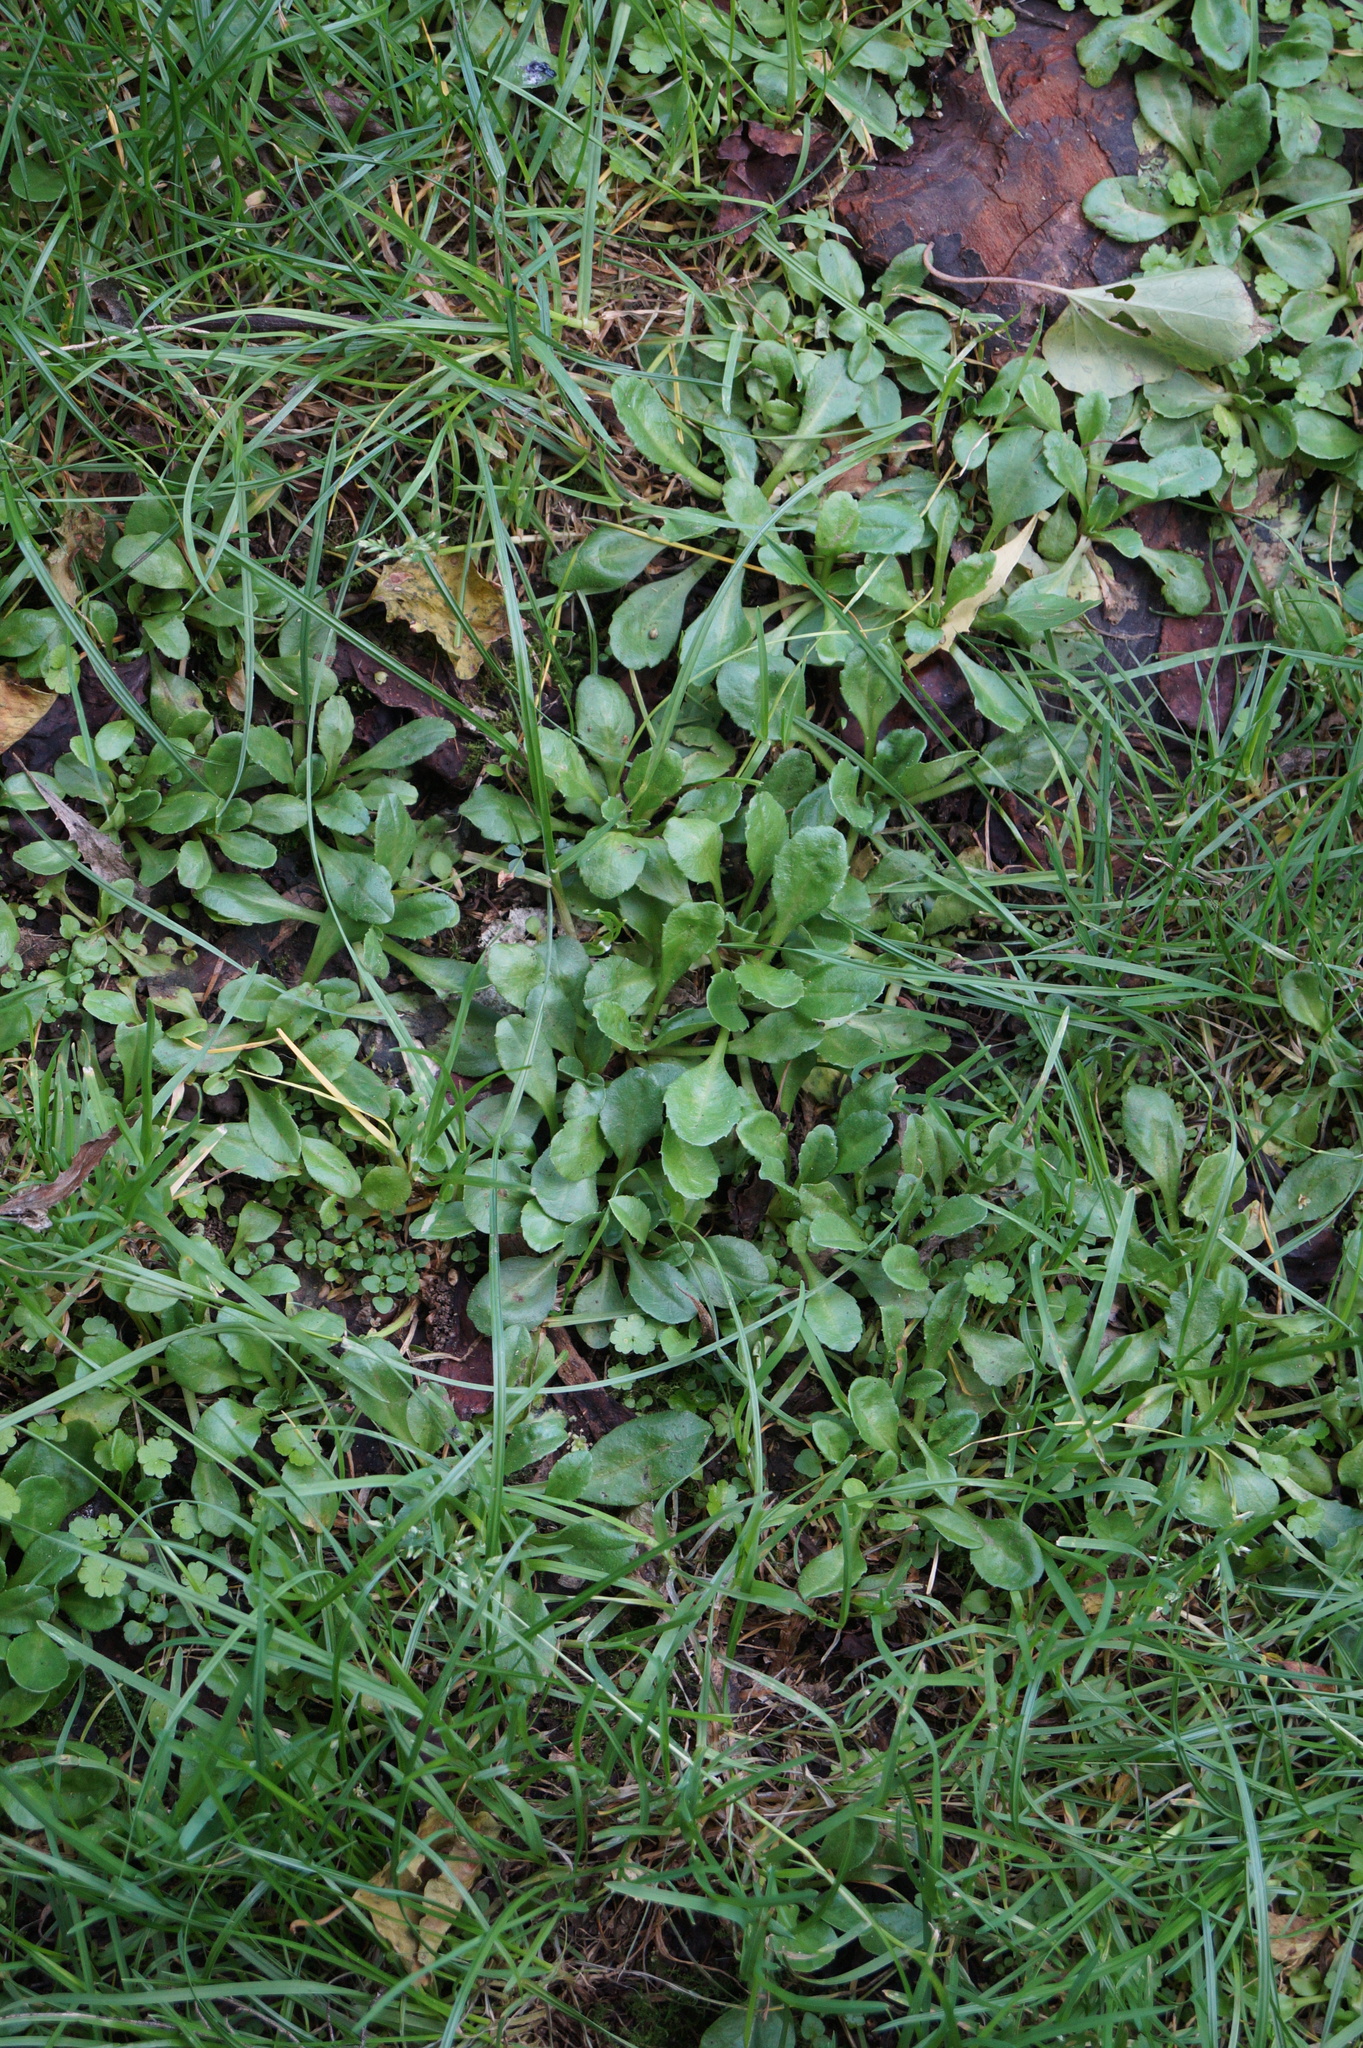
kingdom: Plantae
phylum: Tracheophyta
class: Magnoliopsida
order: Asterales
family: Asteraceae
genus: Bellis
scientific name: Bellis perennis
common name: Lawndaisy
